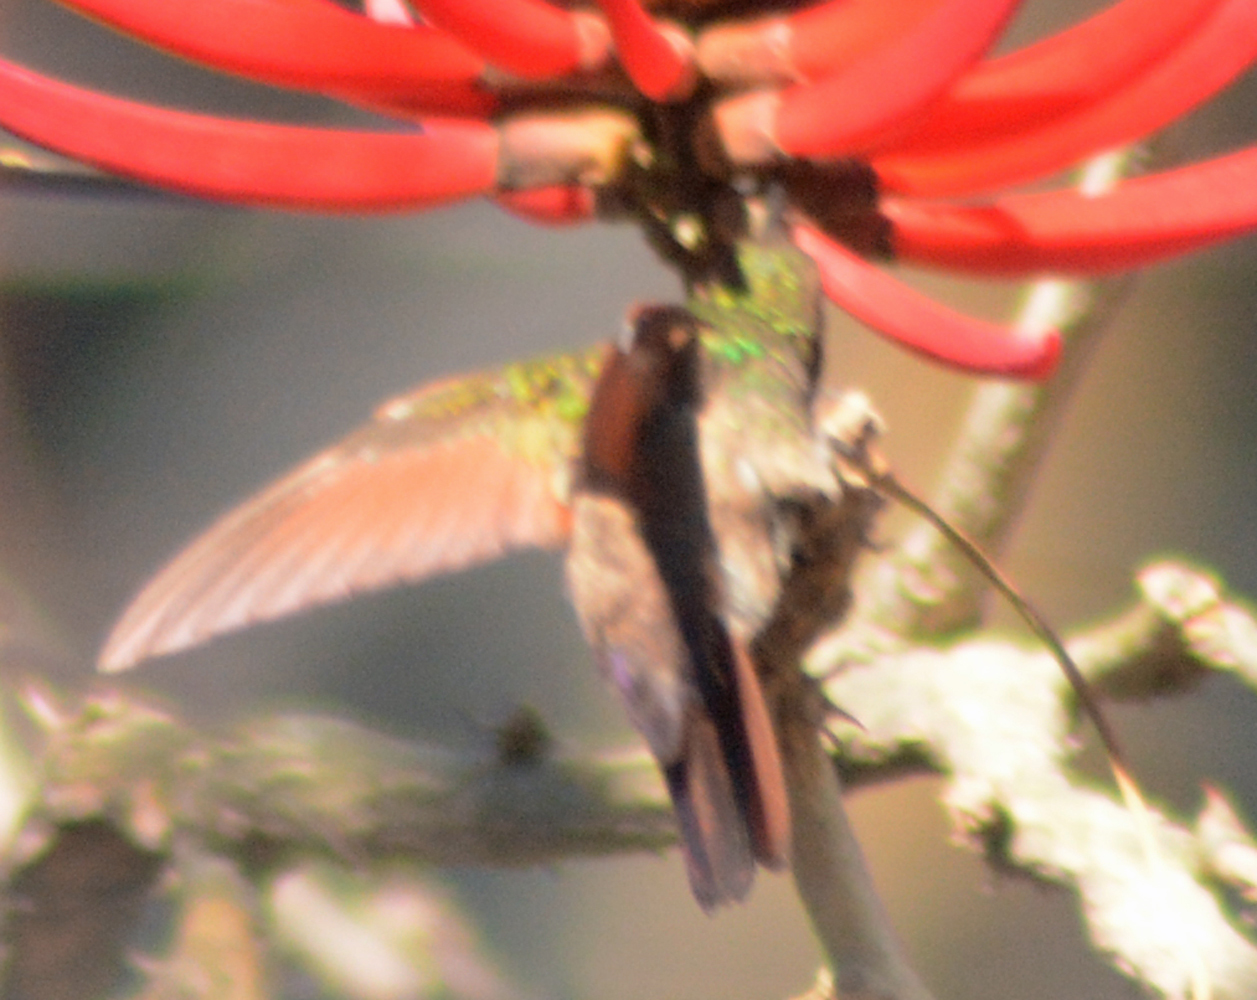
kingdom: Animalia
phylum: Chordata
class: Aves
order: Apodiformes
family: Trochilidae
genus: Saucerottia
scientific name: Saucerottia beryllina
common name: Berylline hummingbird
